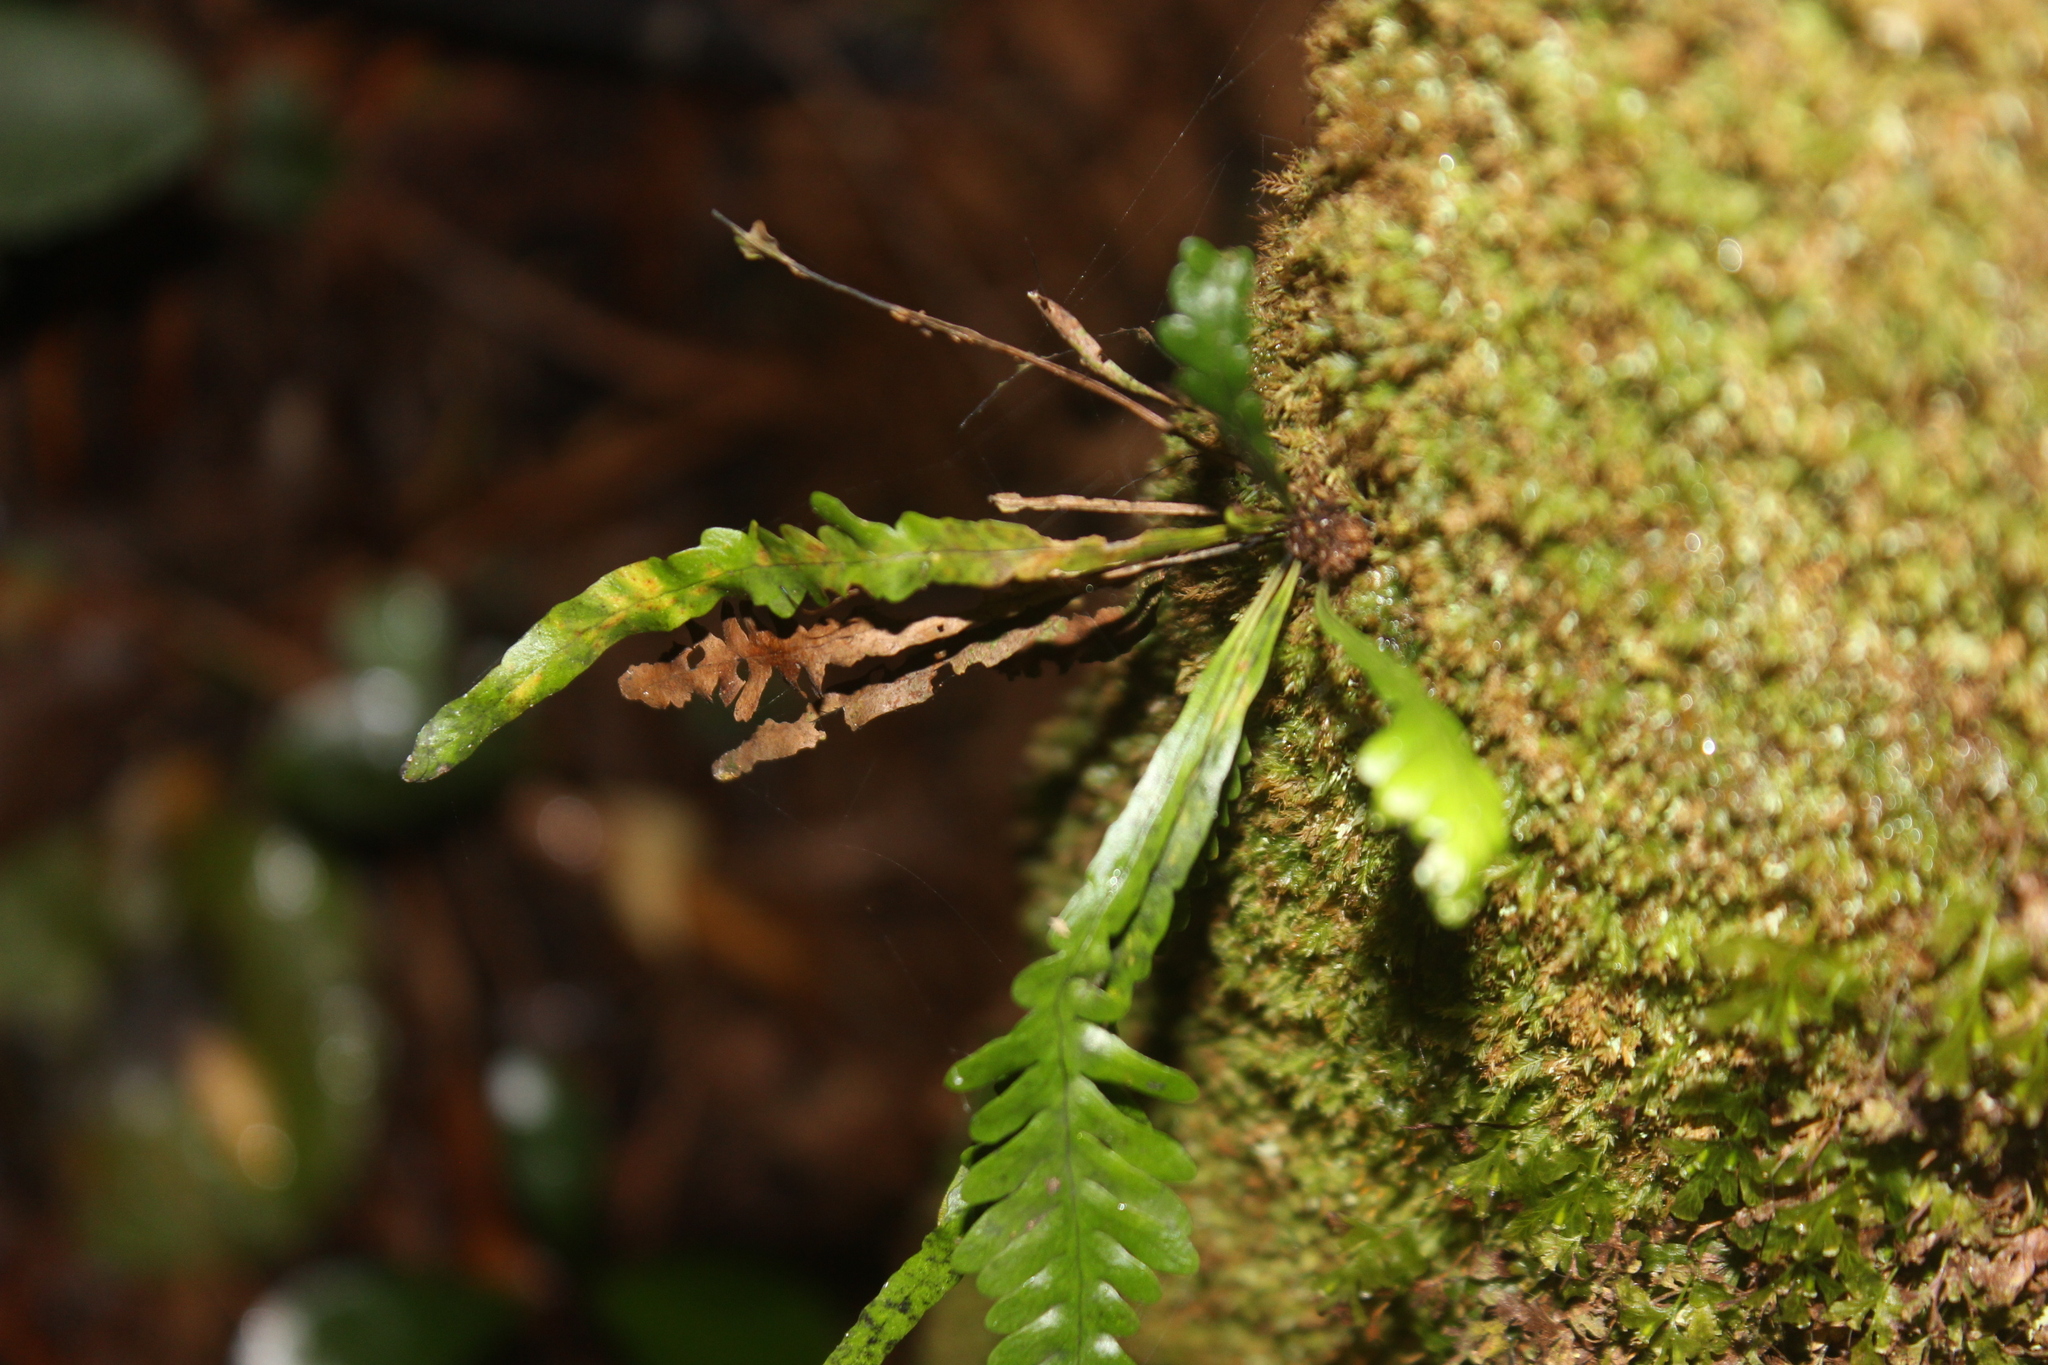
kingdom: Plantae
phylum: Tracheophyta
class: Polypodiopsida
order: Polypodiales
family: Polypodiaceae
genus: Notogrammitis
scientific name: Notogrammitis heterophylla
